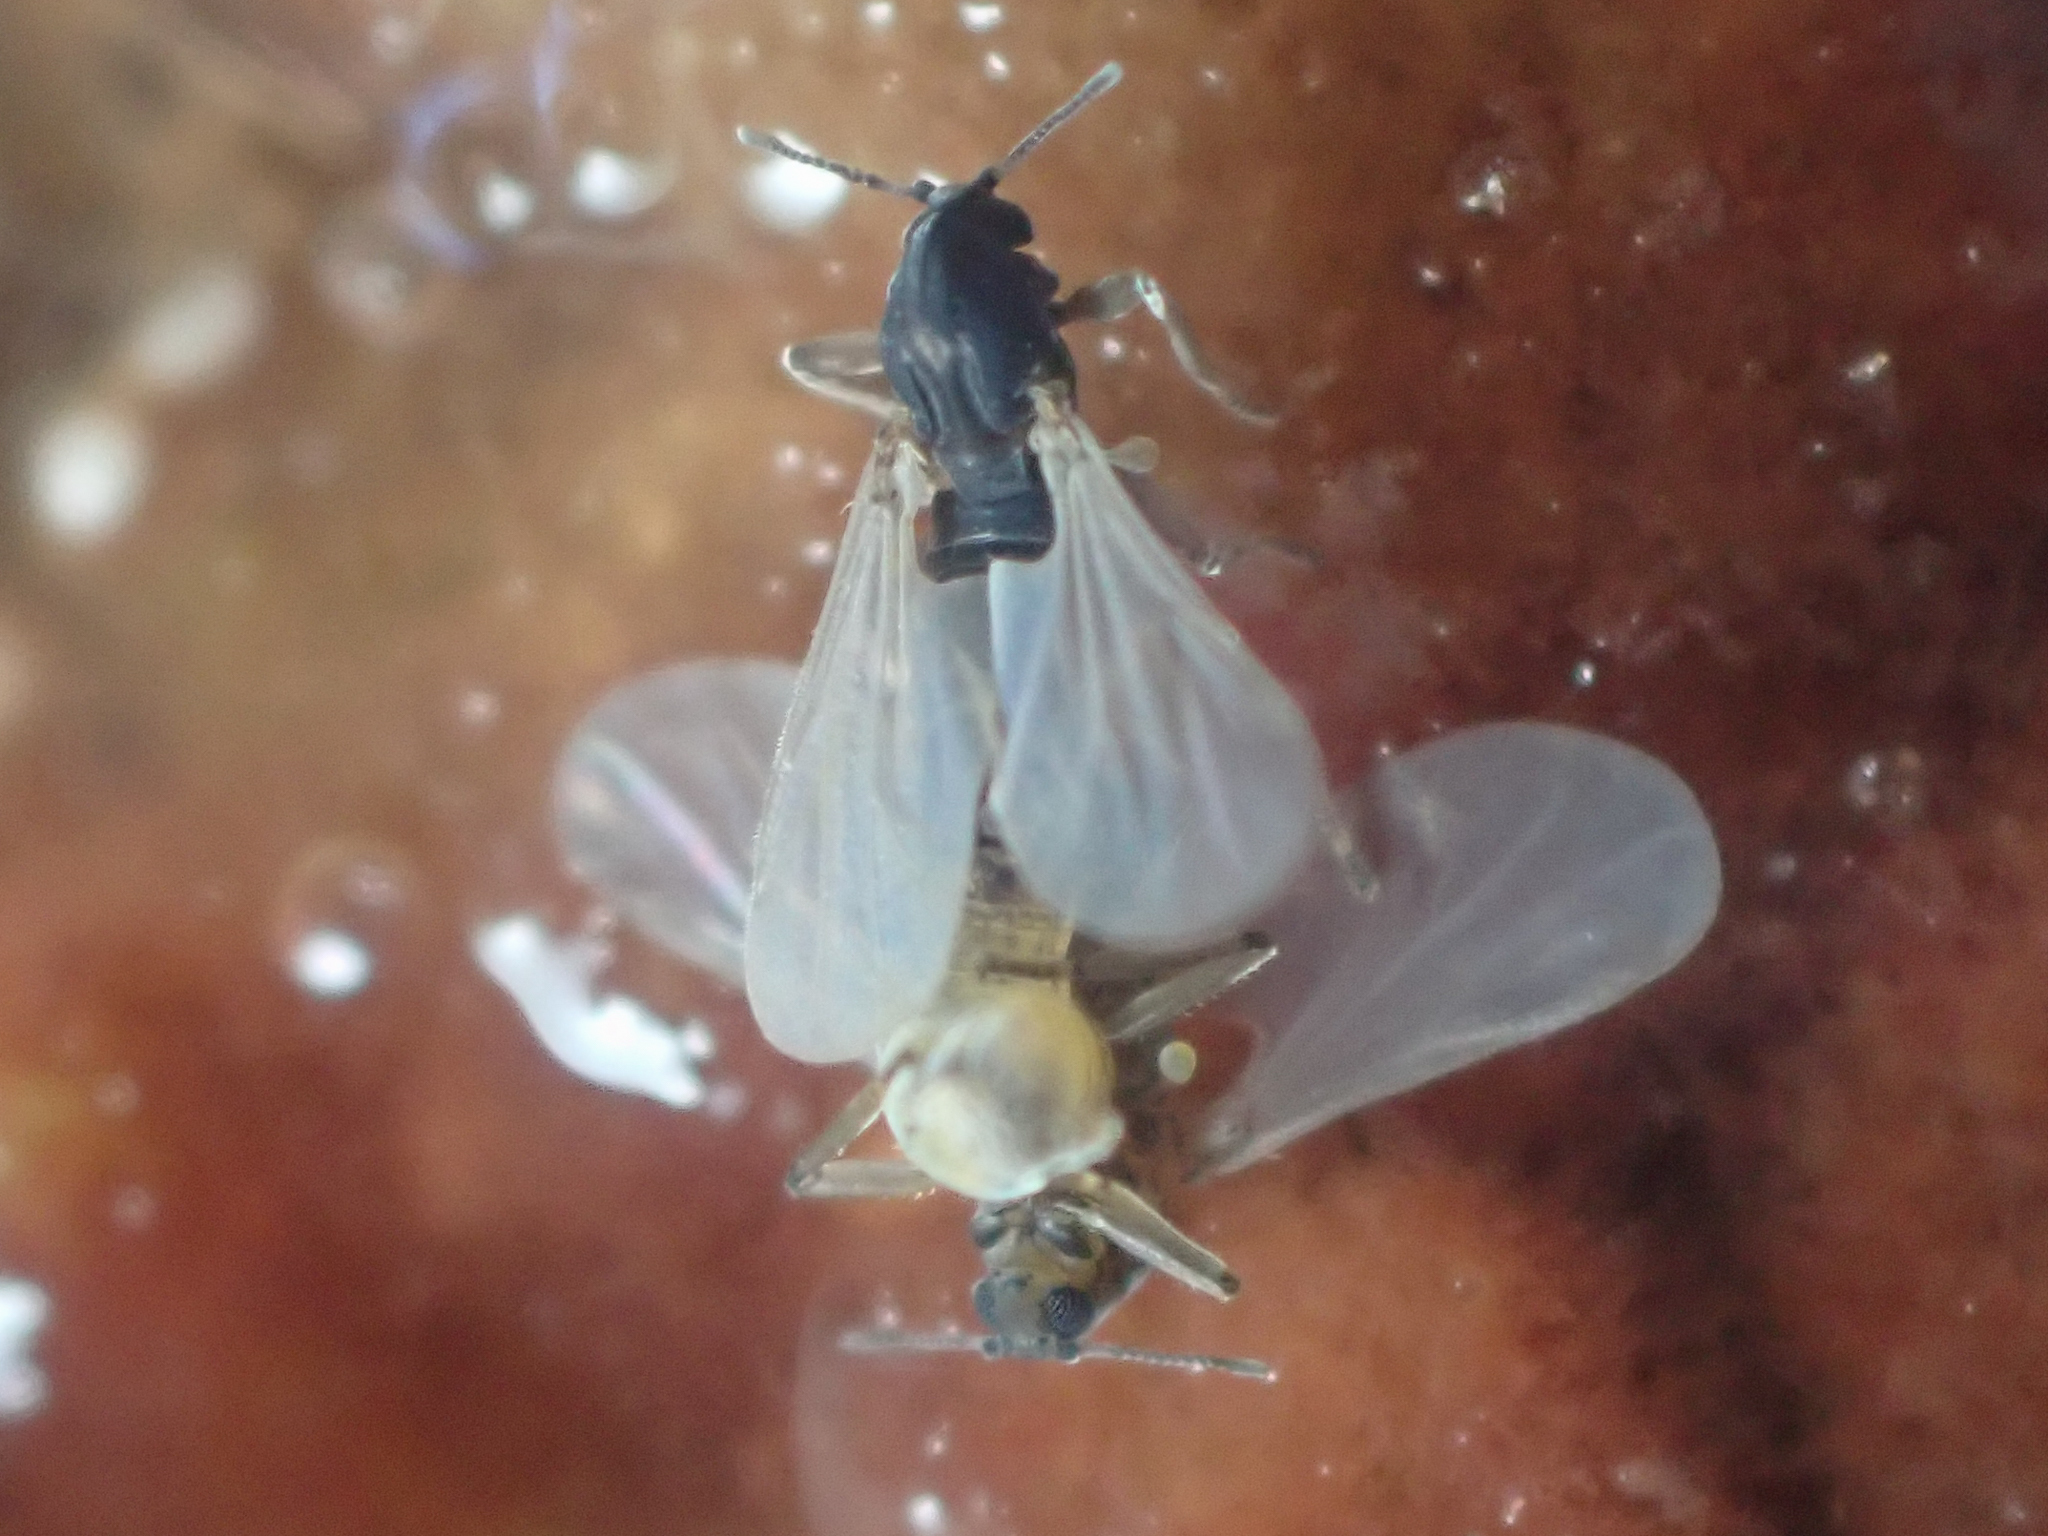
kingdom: Animalia
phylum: Arthropoda
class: Insecta
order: Diptera
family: Chironomidae
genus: Clunio
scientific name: Clunio californiensis
